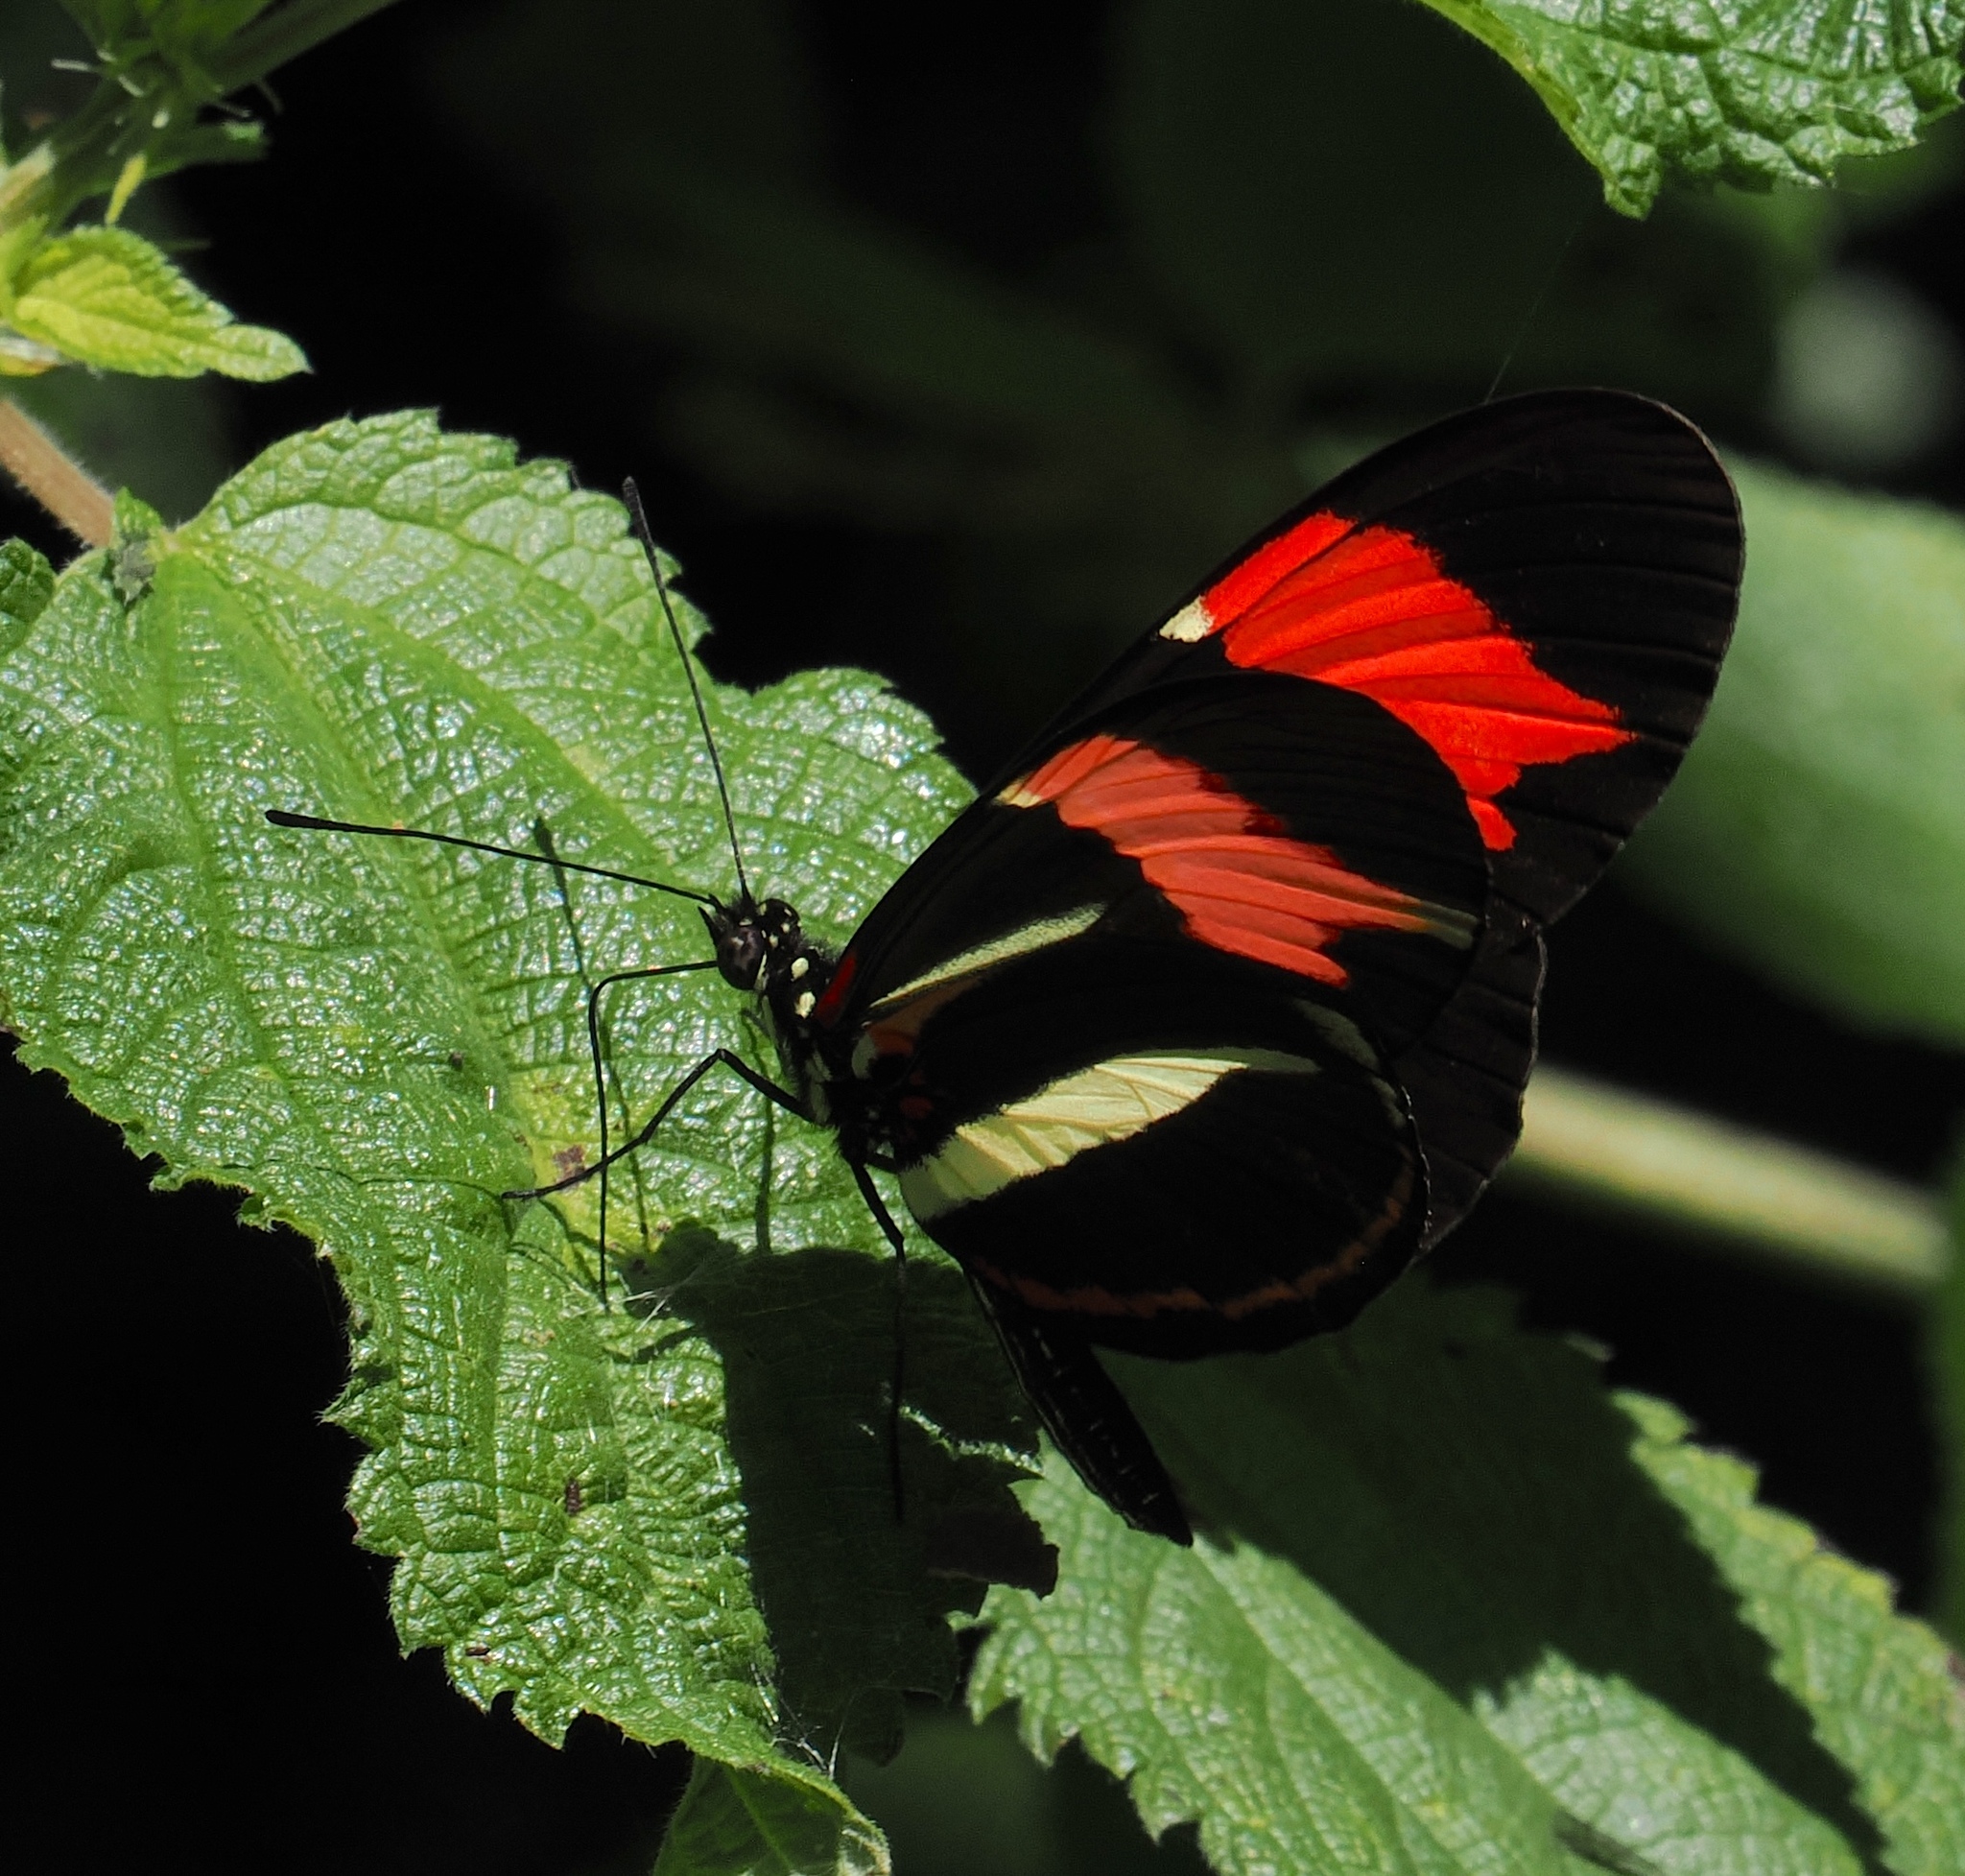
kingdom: Animalia
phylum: Arthropoda
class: Insecta
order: Lepidoptera
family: Nymphalidae
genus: Heliconius
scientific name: Heliconius besckei
